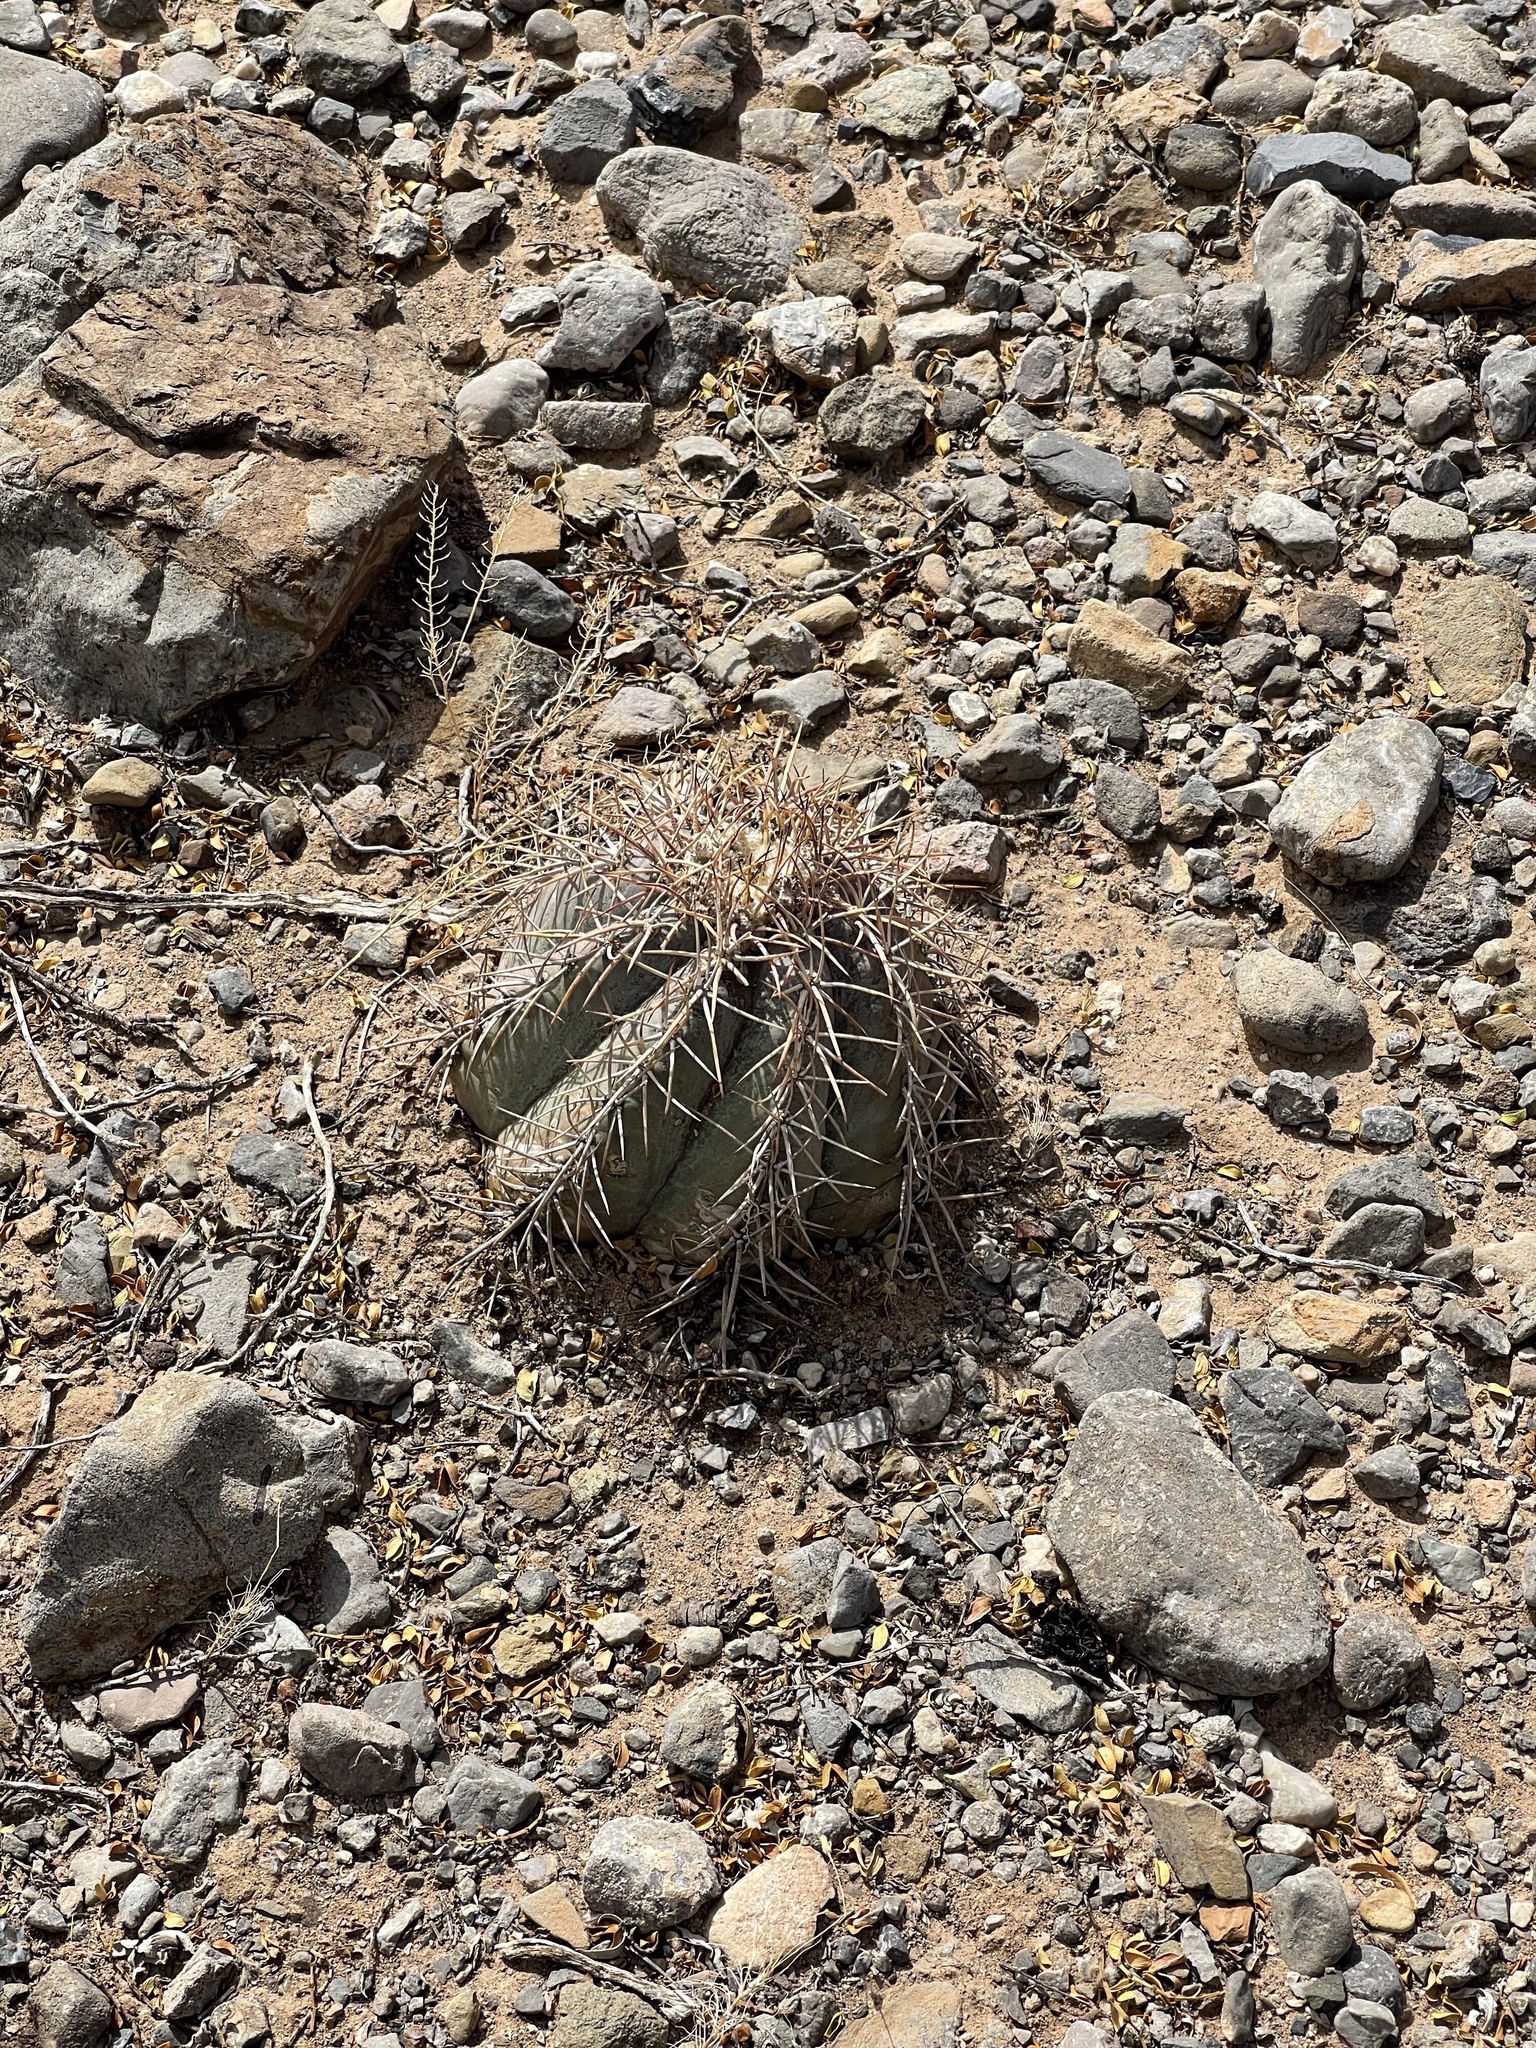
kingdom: Plantae
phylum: Tracheophyta
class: Magnoliopsida
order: Caryophyllales
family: Cactaceae
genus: Echinocactus
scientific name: Echinocactus horizonthalonius
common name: Devilshead
